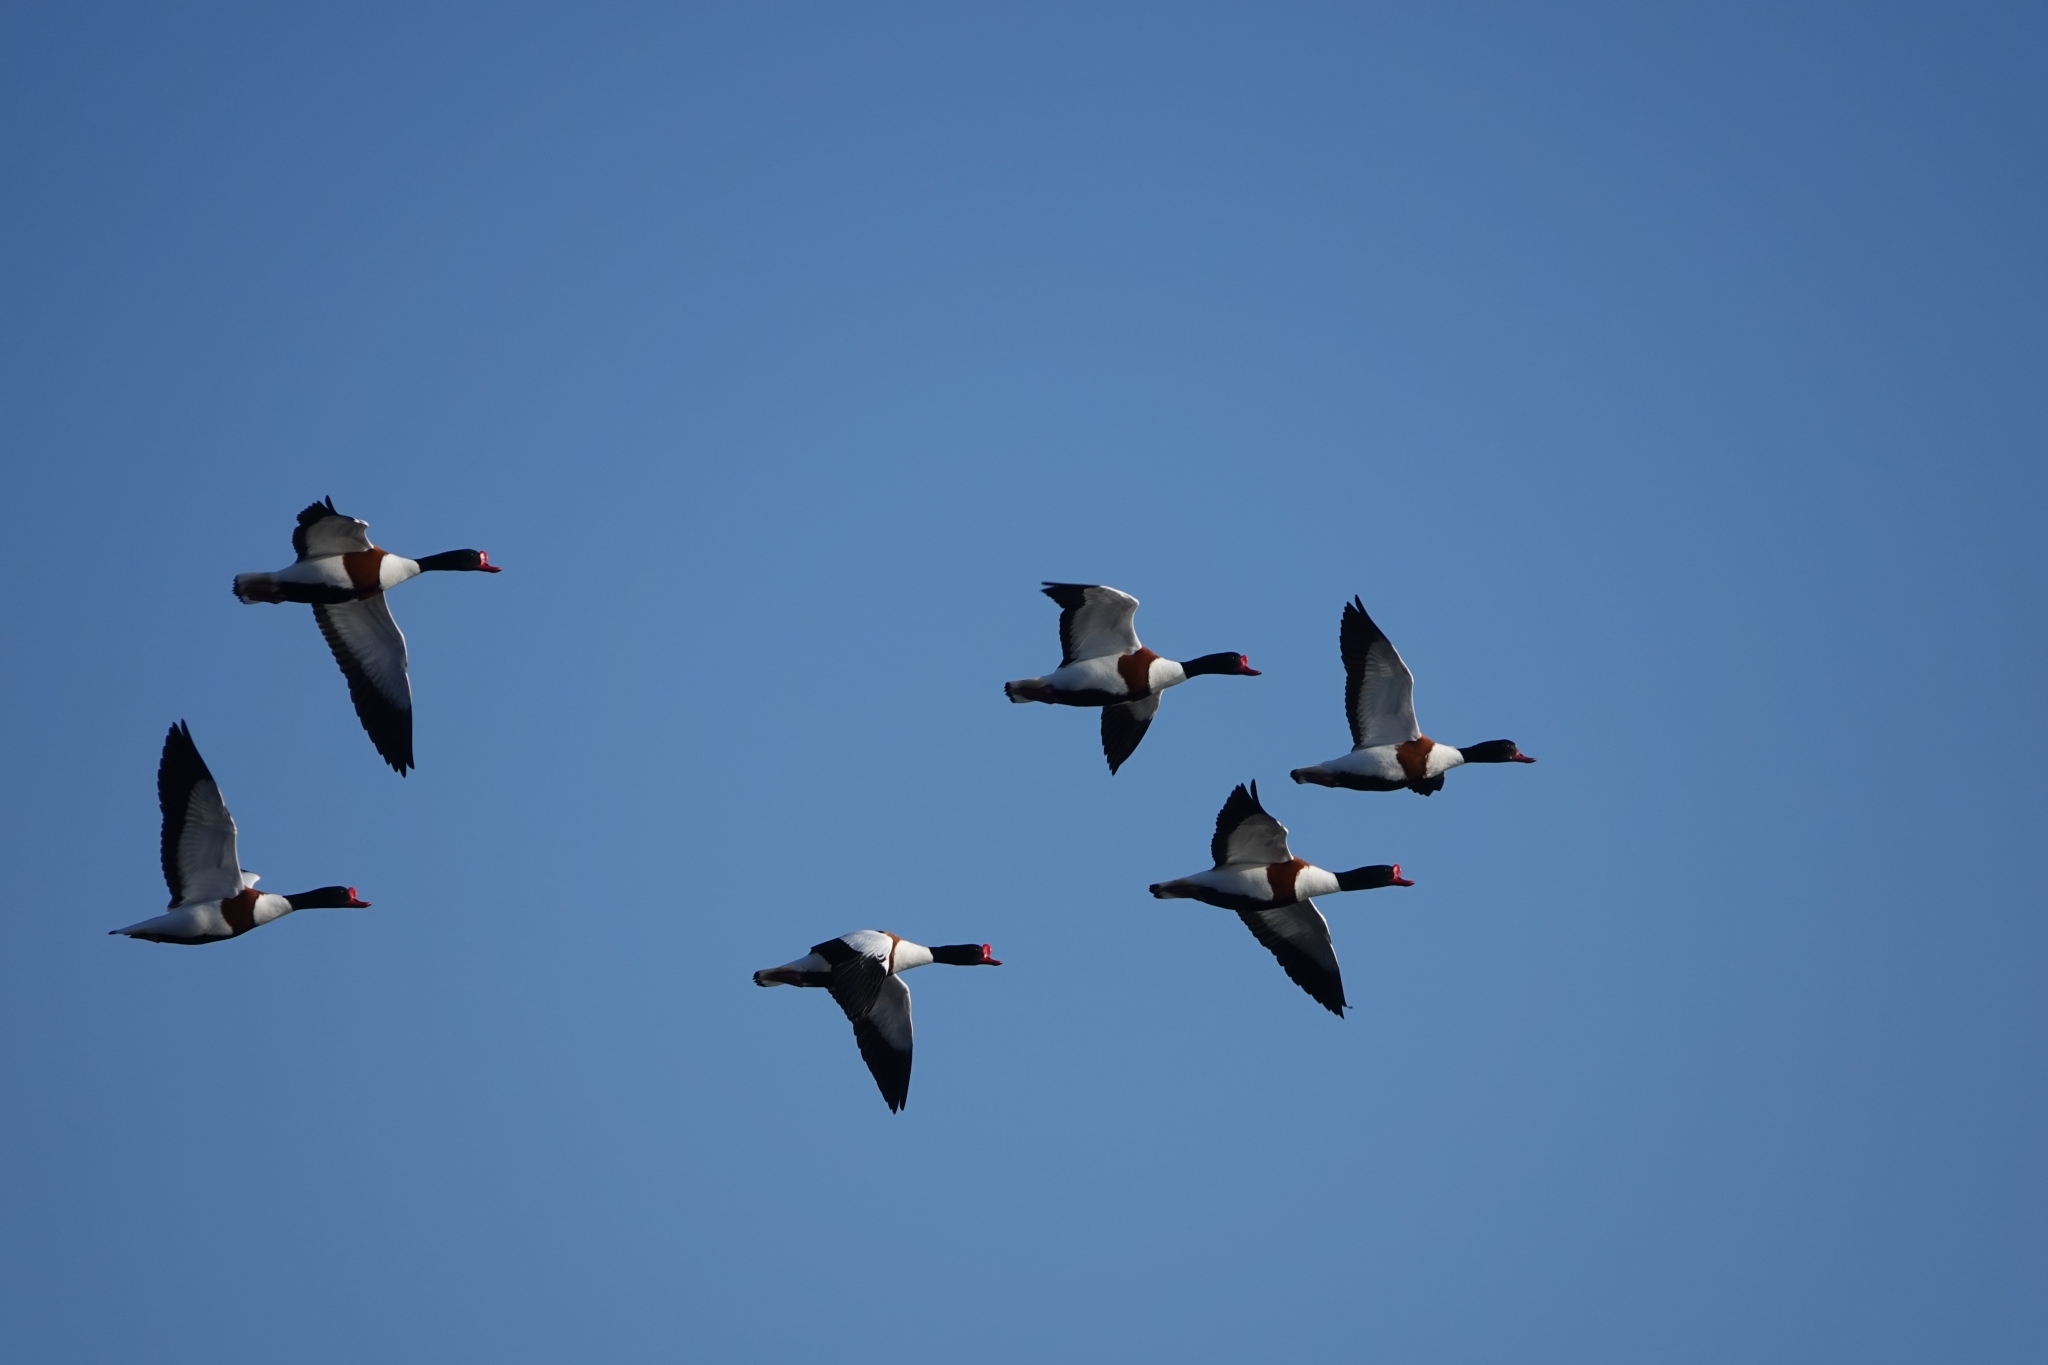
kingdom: Animalia
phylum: Chordata
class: Aves
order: Anseriformes
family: Anatidae
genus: Tadorna
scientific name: Tadorna tadorna
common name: Common shelduck
